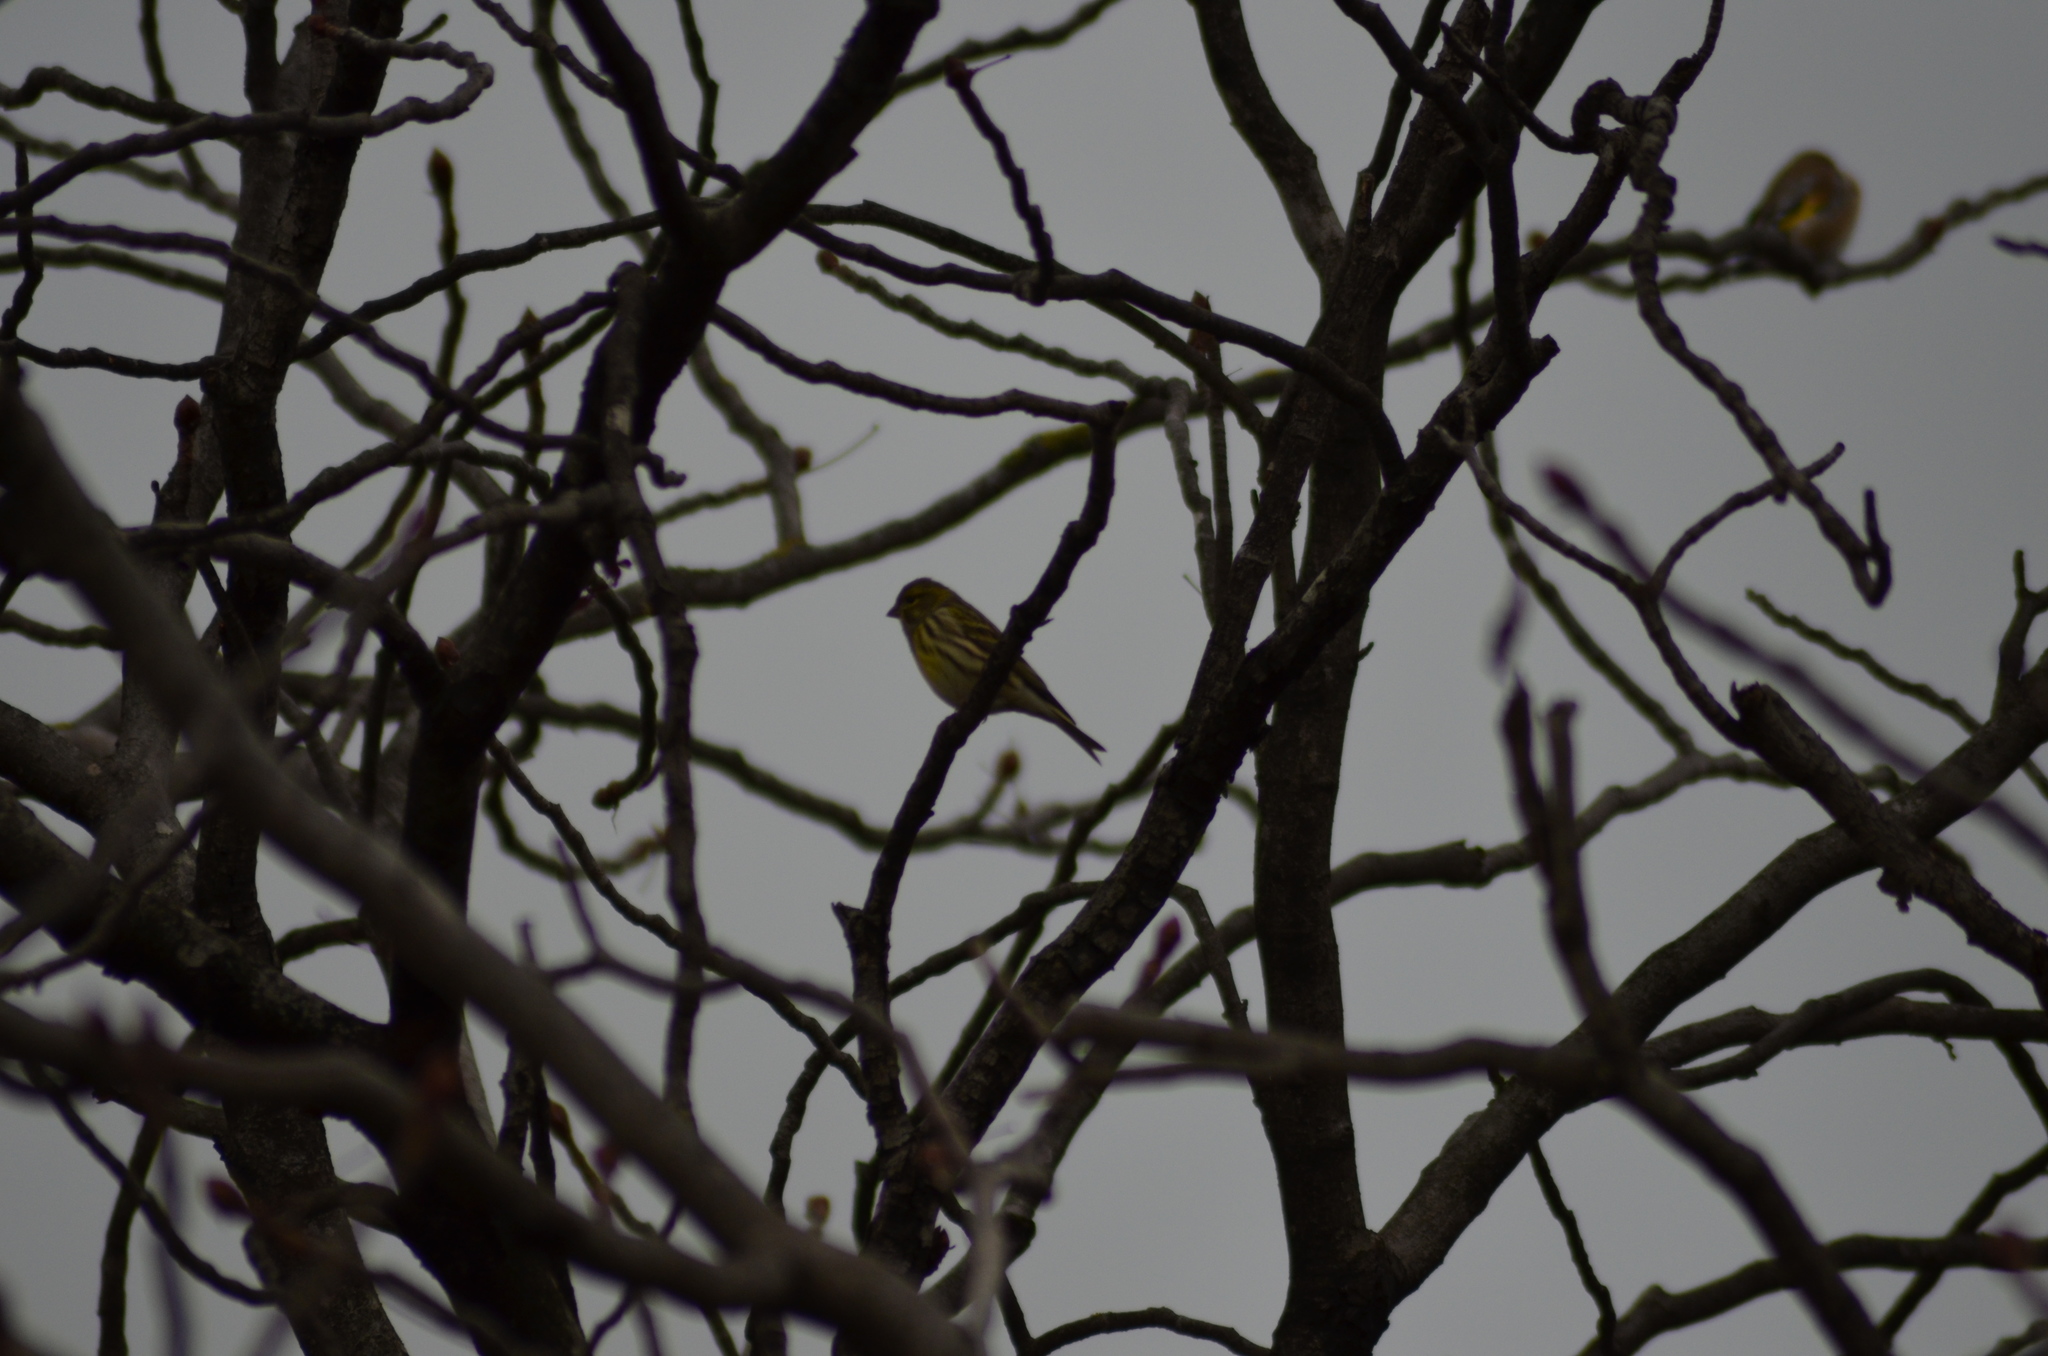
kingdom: Animalia
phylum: Chordata
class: Aves
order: Passeriformes
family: Fringillidae
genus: Serinus
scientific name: Serinus serinus
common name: European serin
